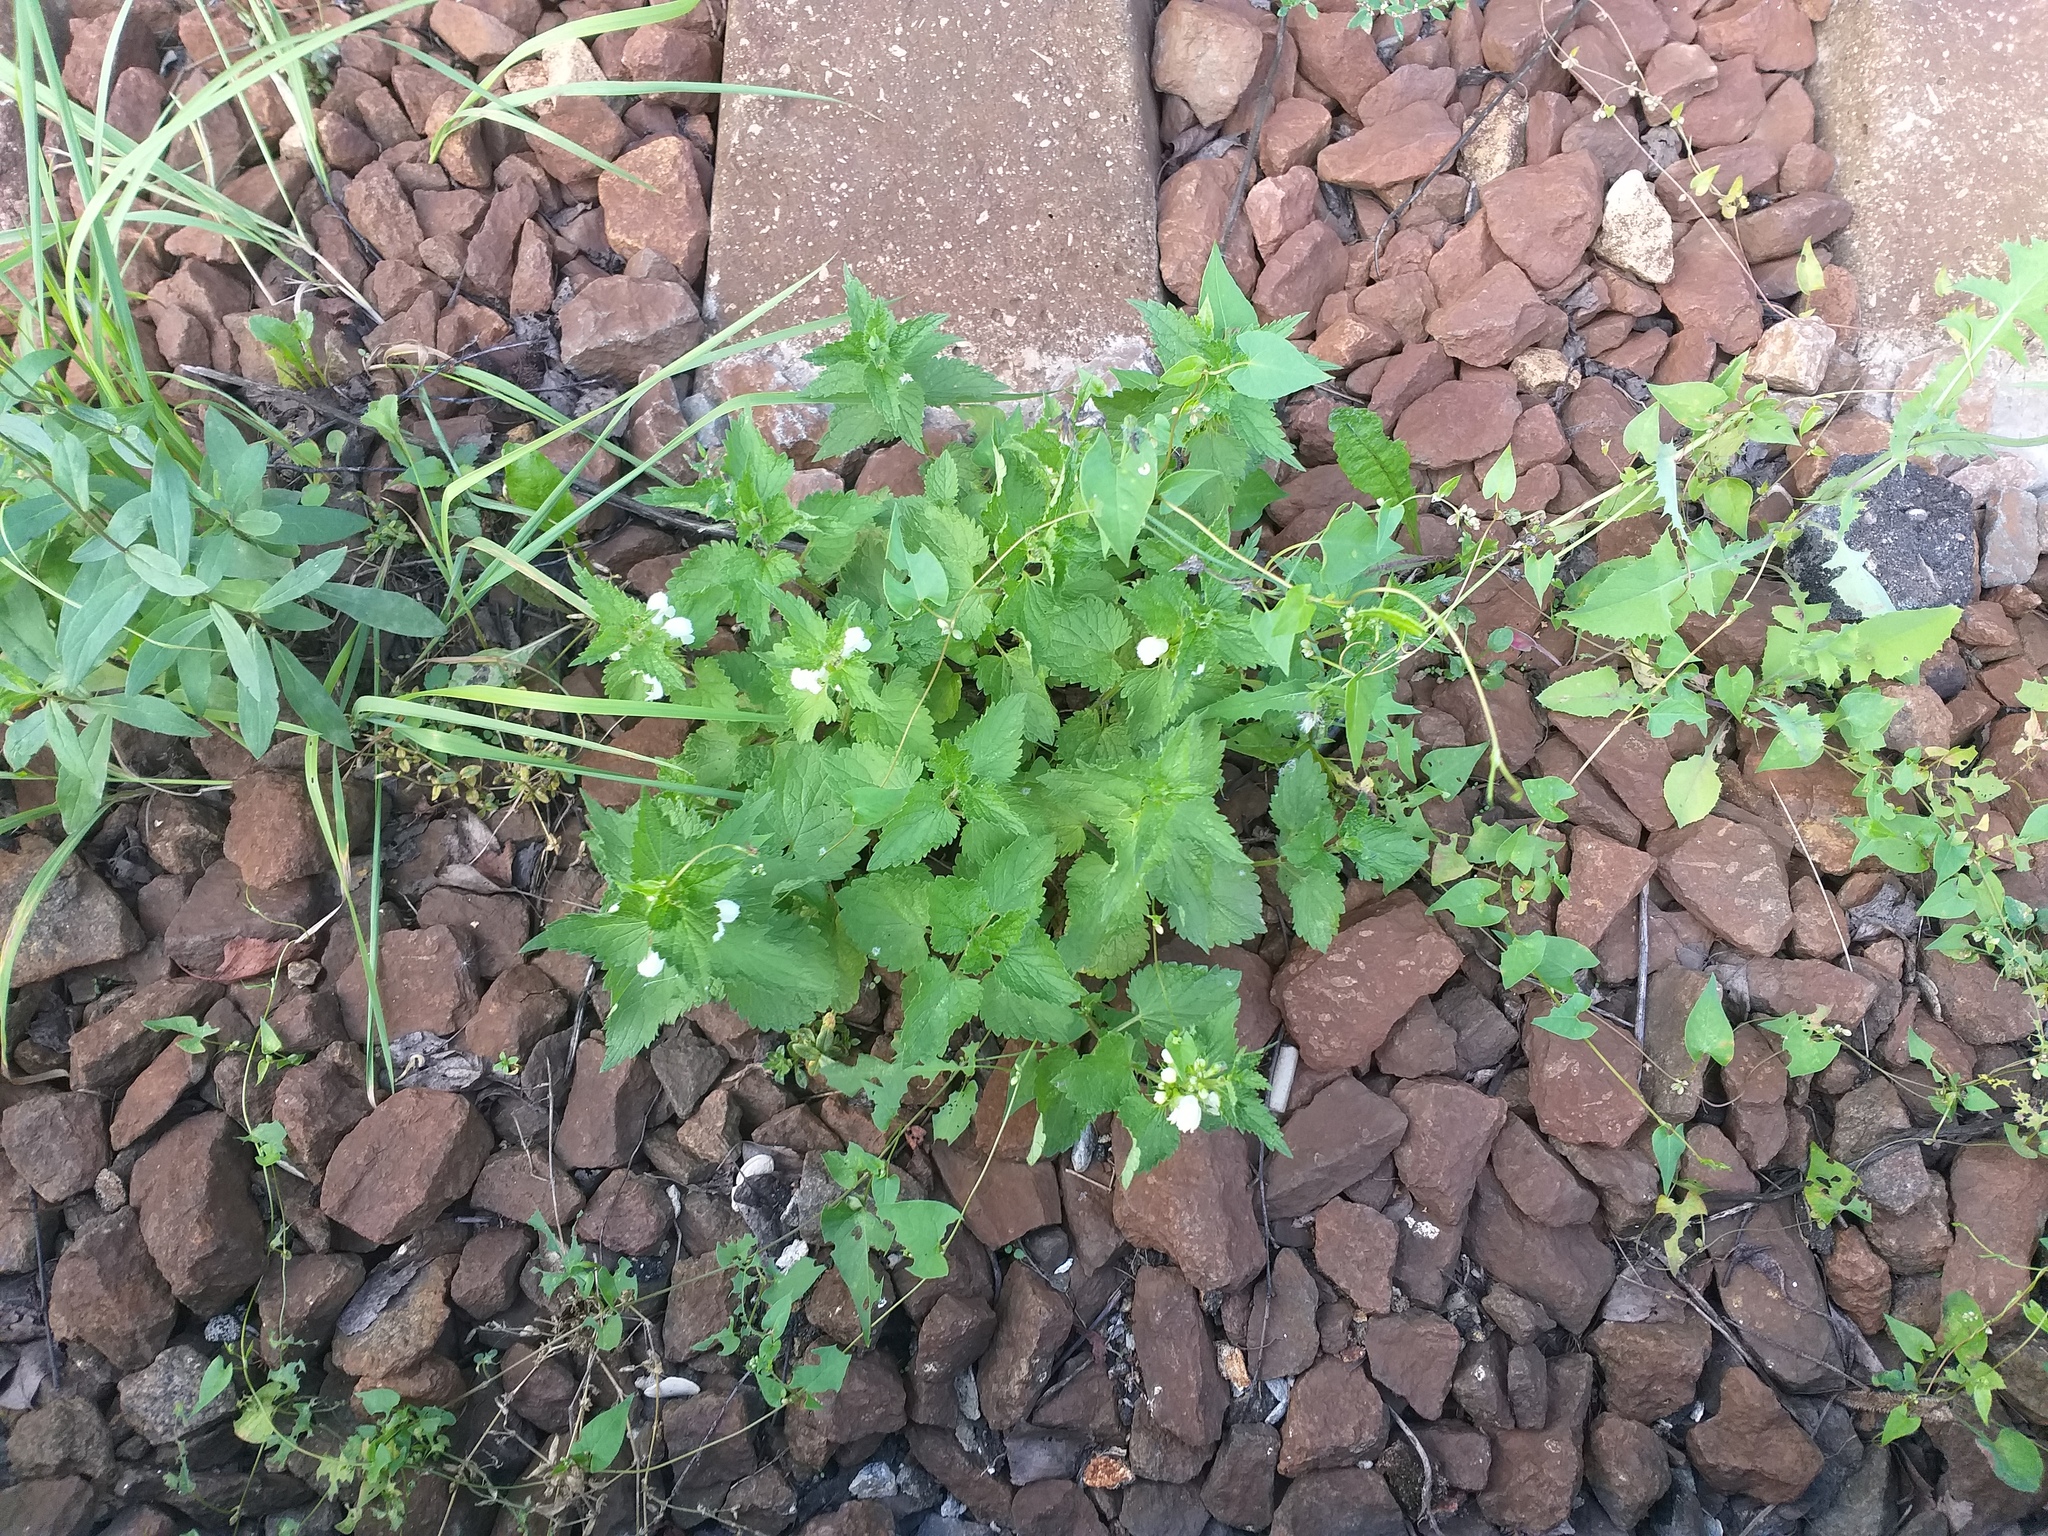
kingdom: Plantae
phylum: Tracheophyta
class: Magnoliopsida
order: Lamiales
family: Lamiaceae
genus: Lamium
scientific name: Lamium album
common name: White dead-nettle
